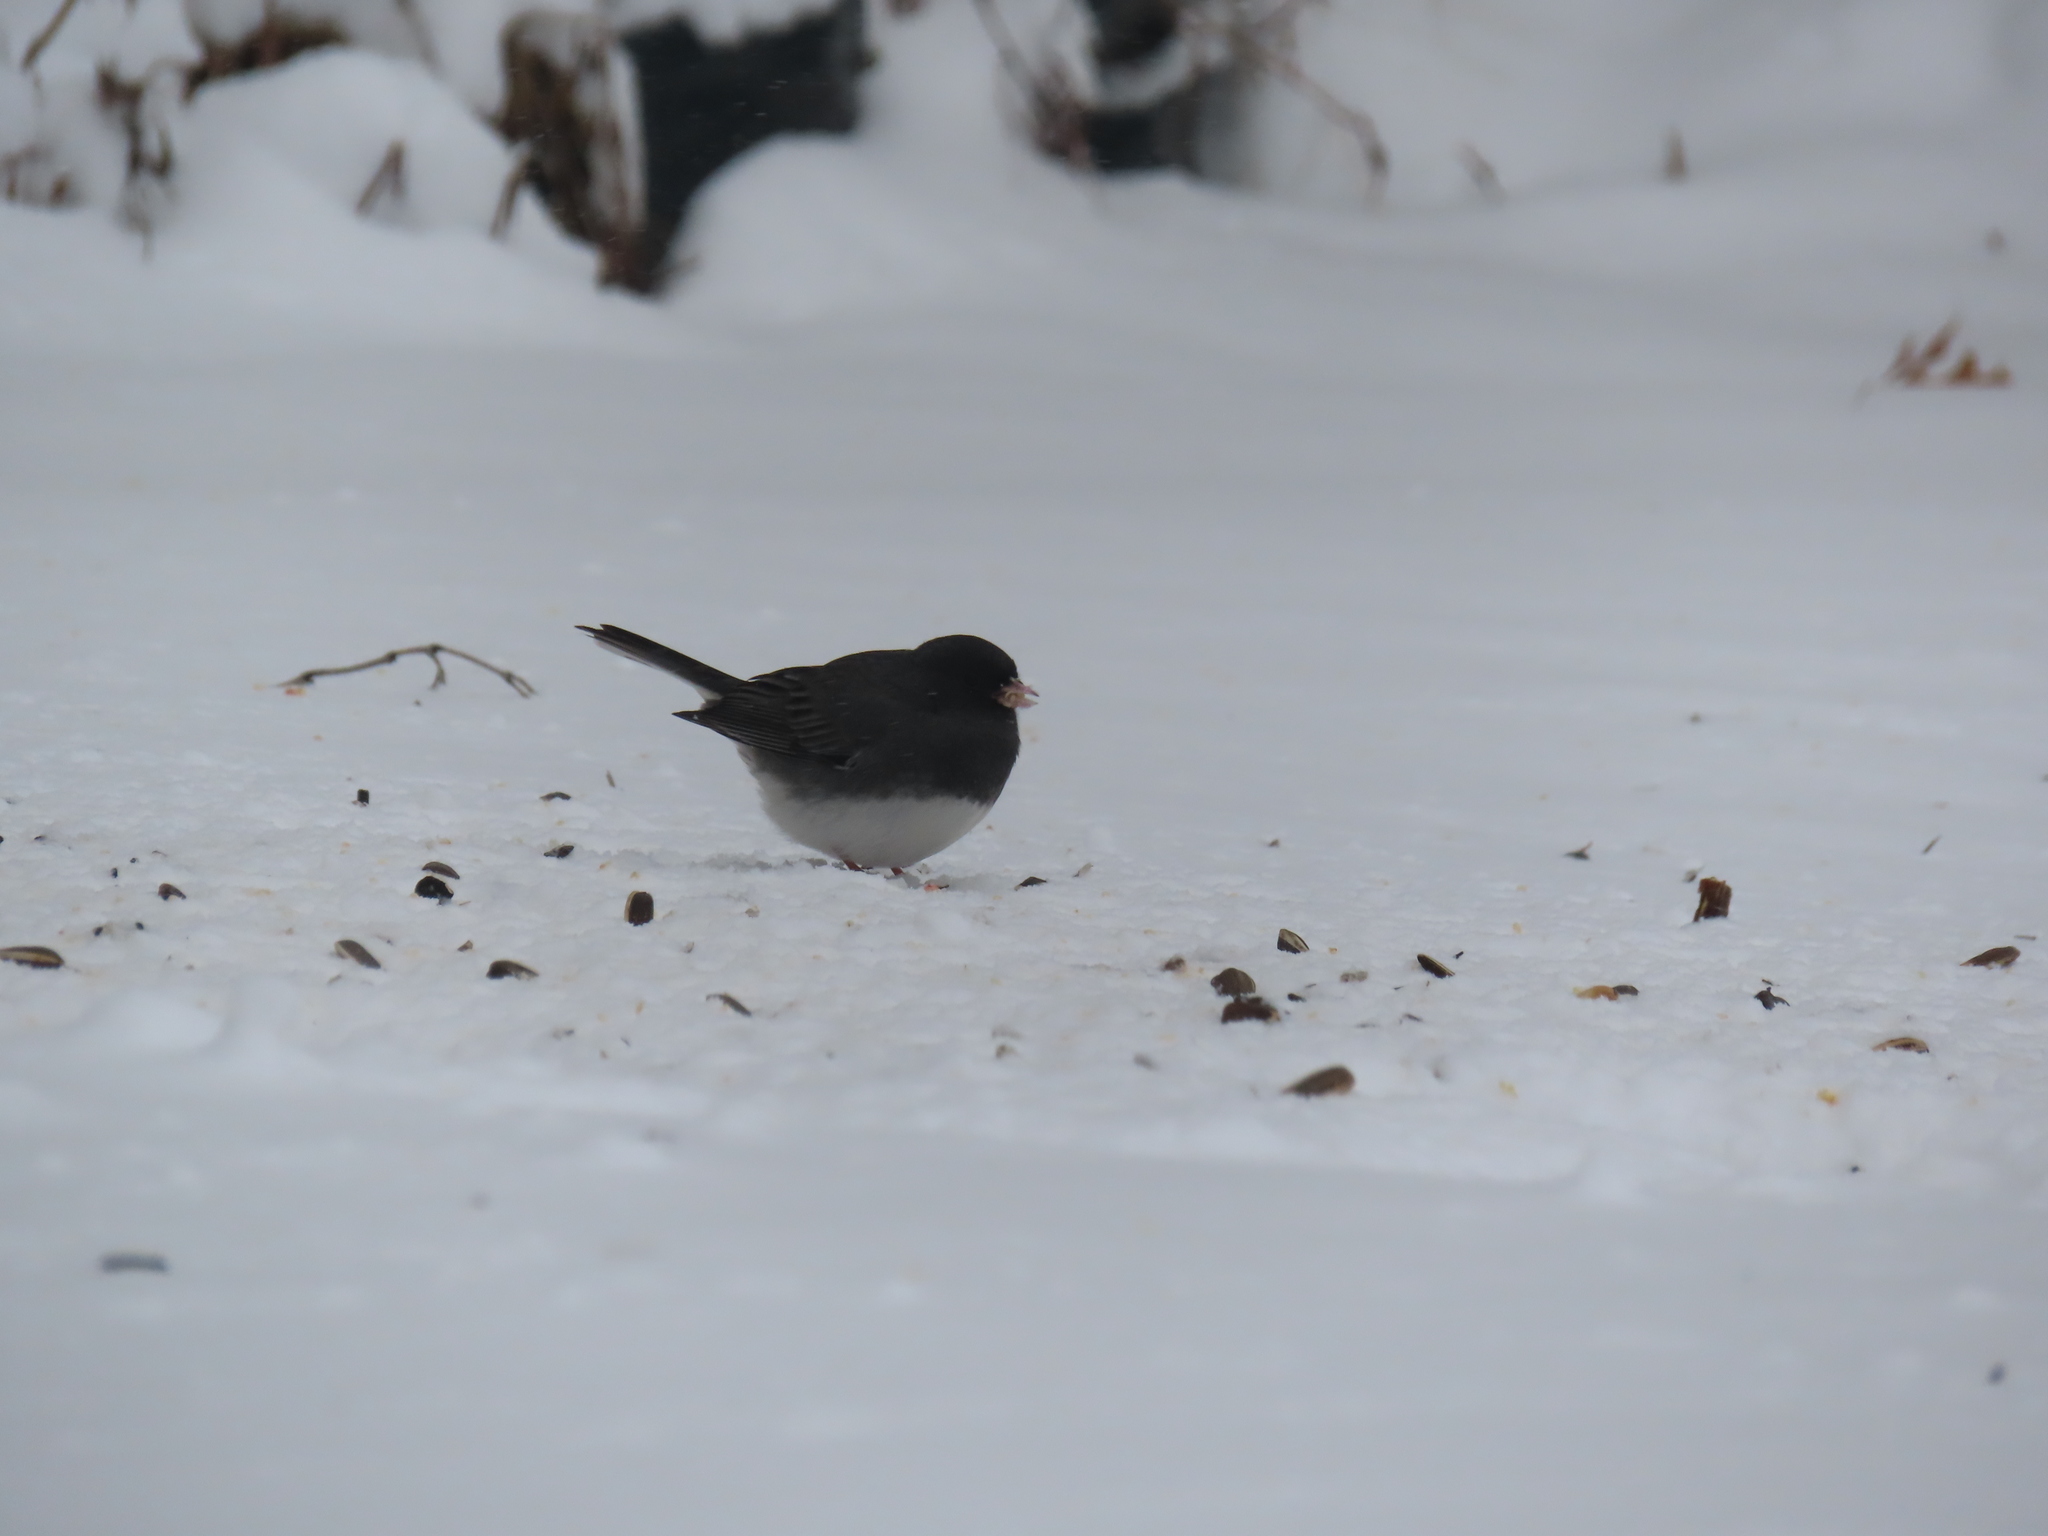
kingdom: Animalia
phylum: Chordata
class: Aves
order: Passeriformes
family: Passerellidae
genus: Junco
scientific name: Junco hyemalis
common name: Dark-eyed junco
